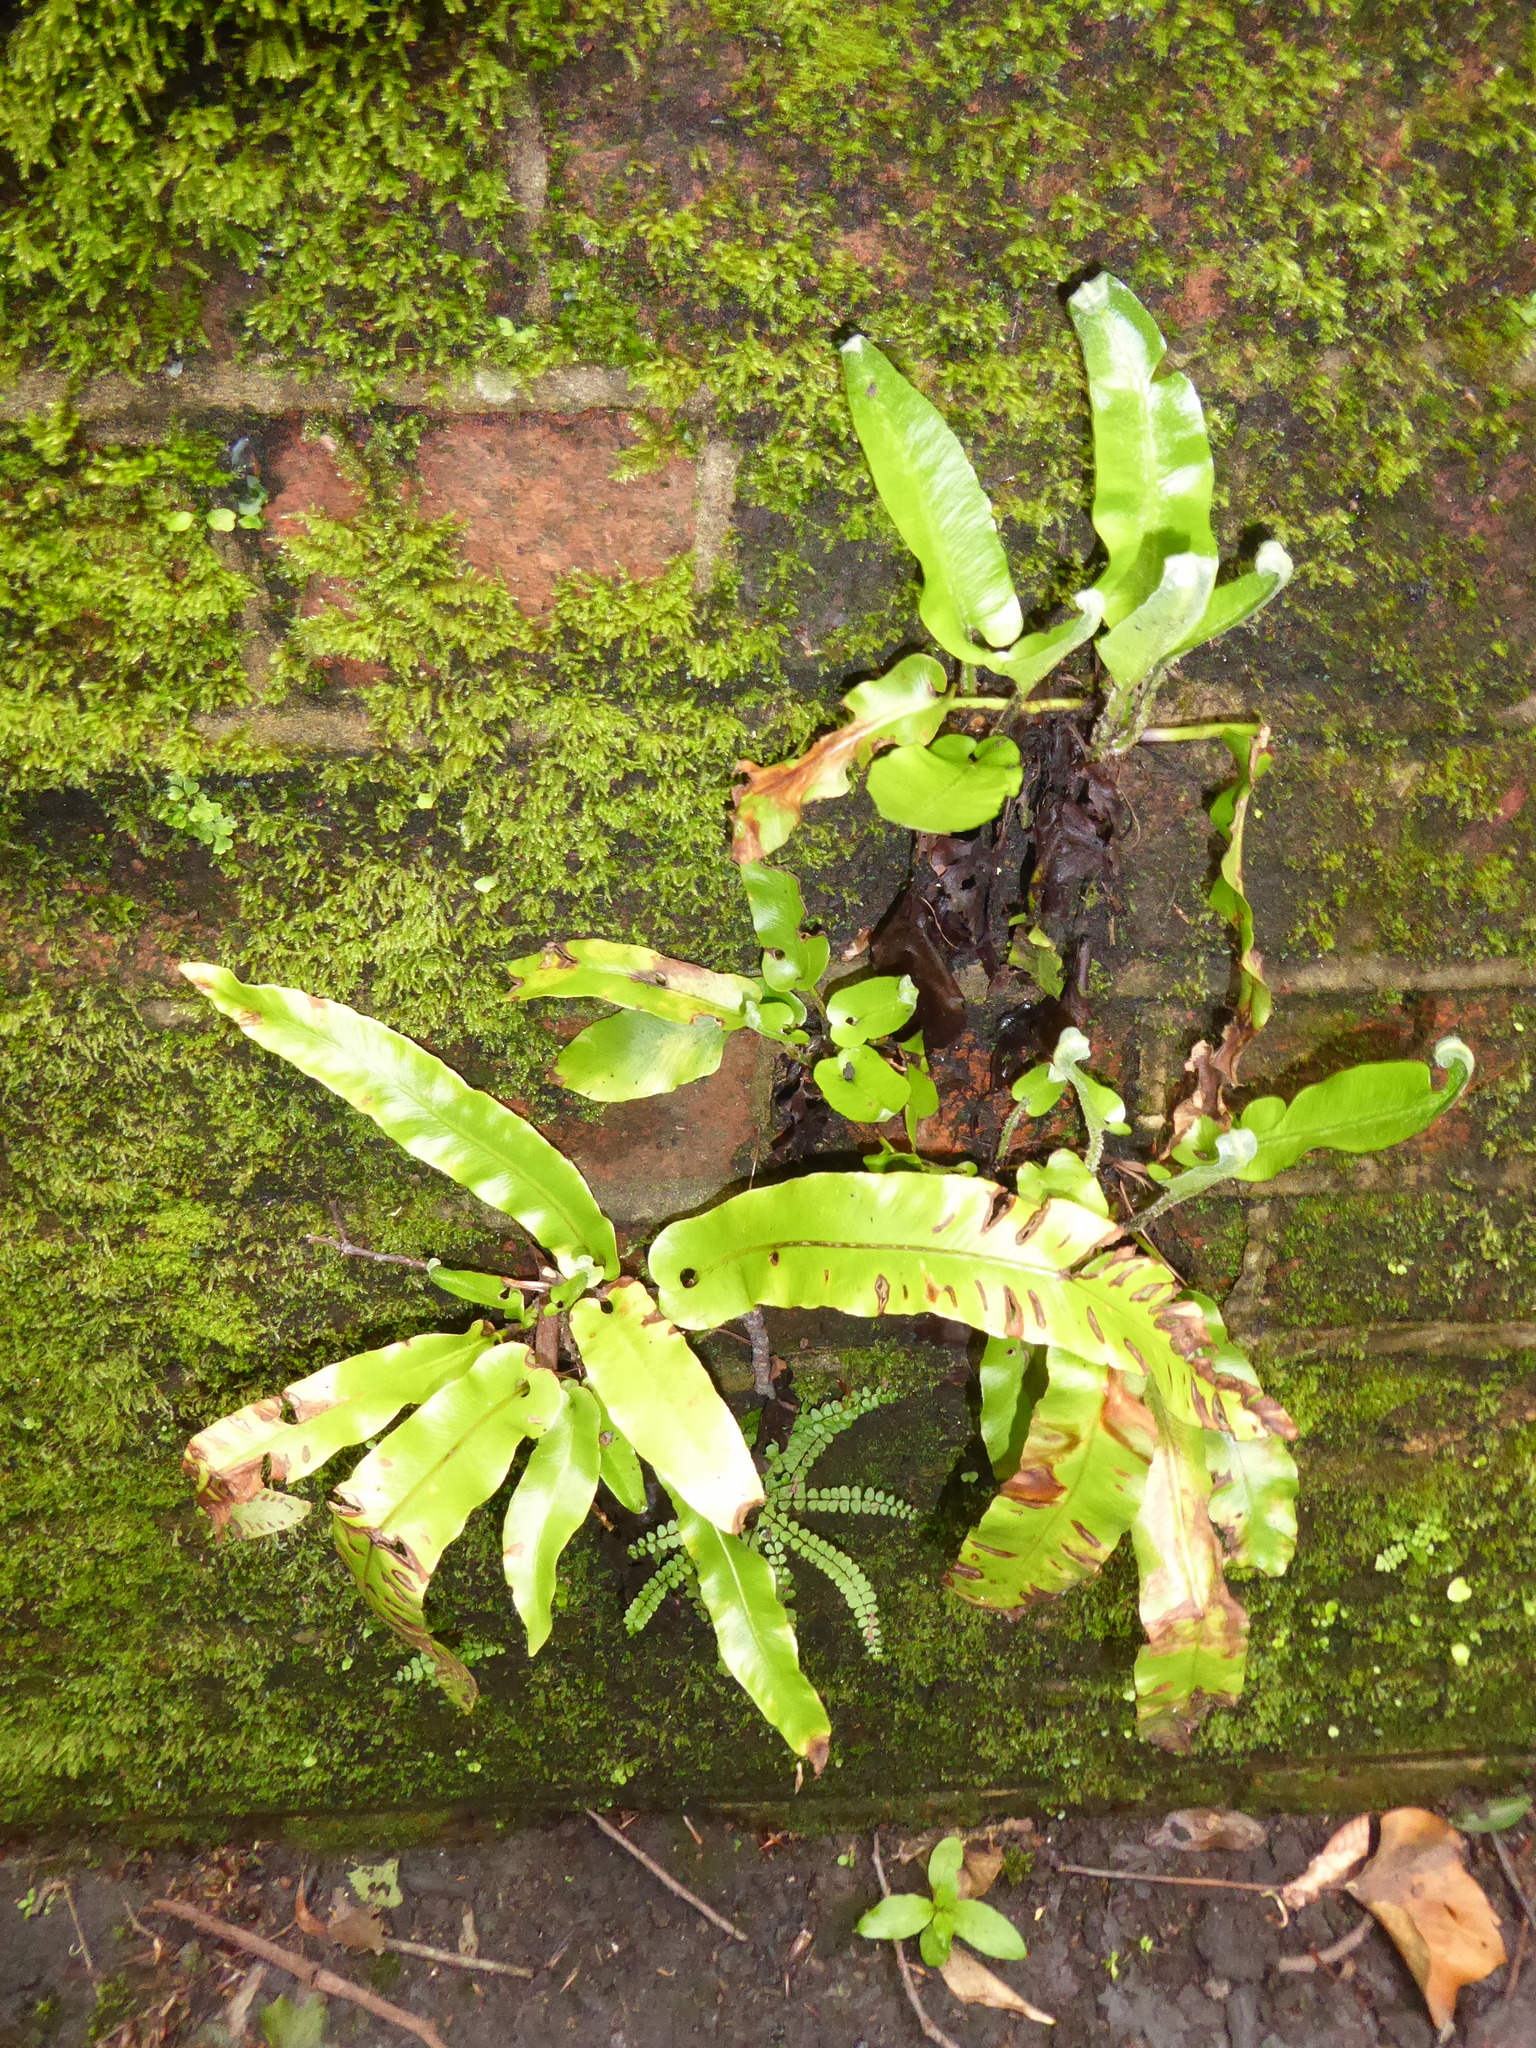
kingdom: Plantae
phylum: Tracheophyta
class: Polypodiopsida
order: Polypodiales
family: Aspleniaceae
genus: Asplenium
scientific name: Asplenium scolopendrium
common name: Hart's-tongue fern
